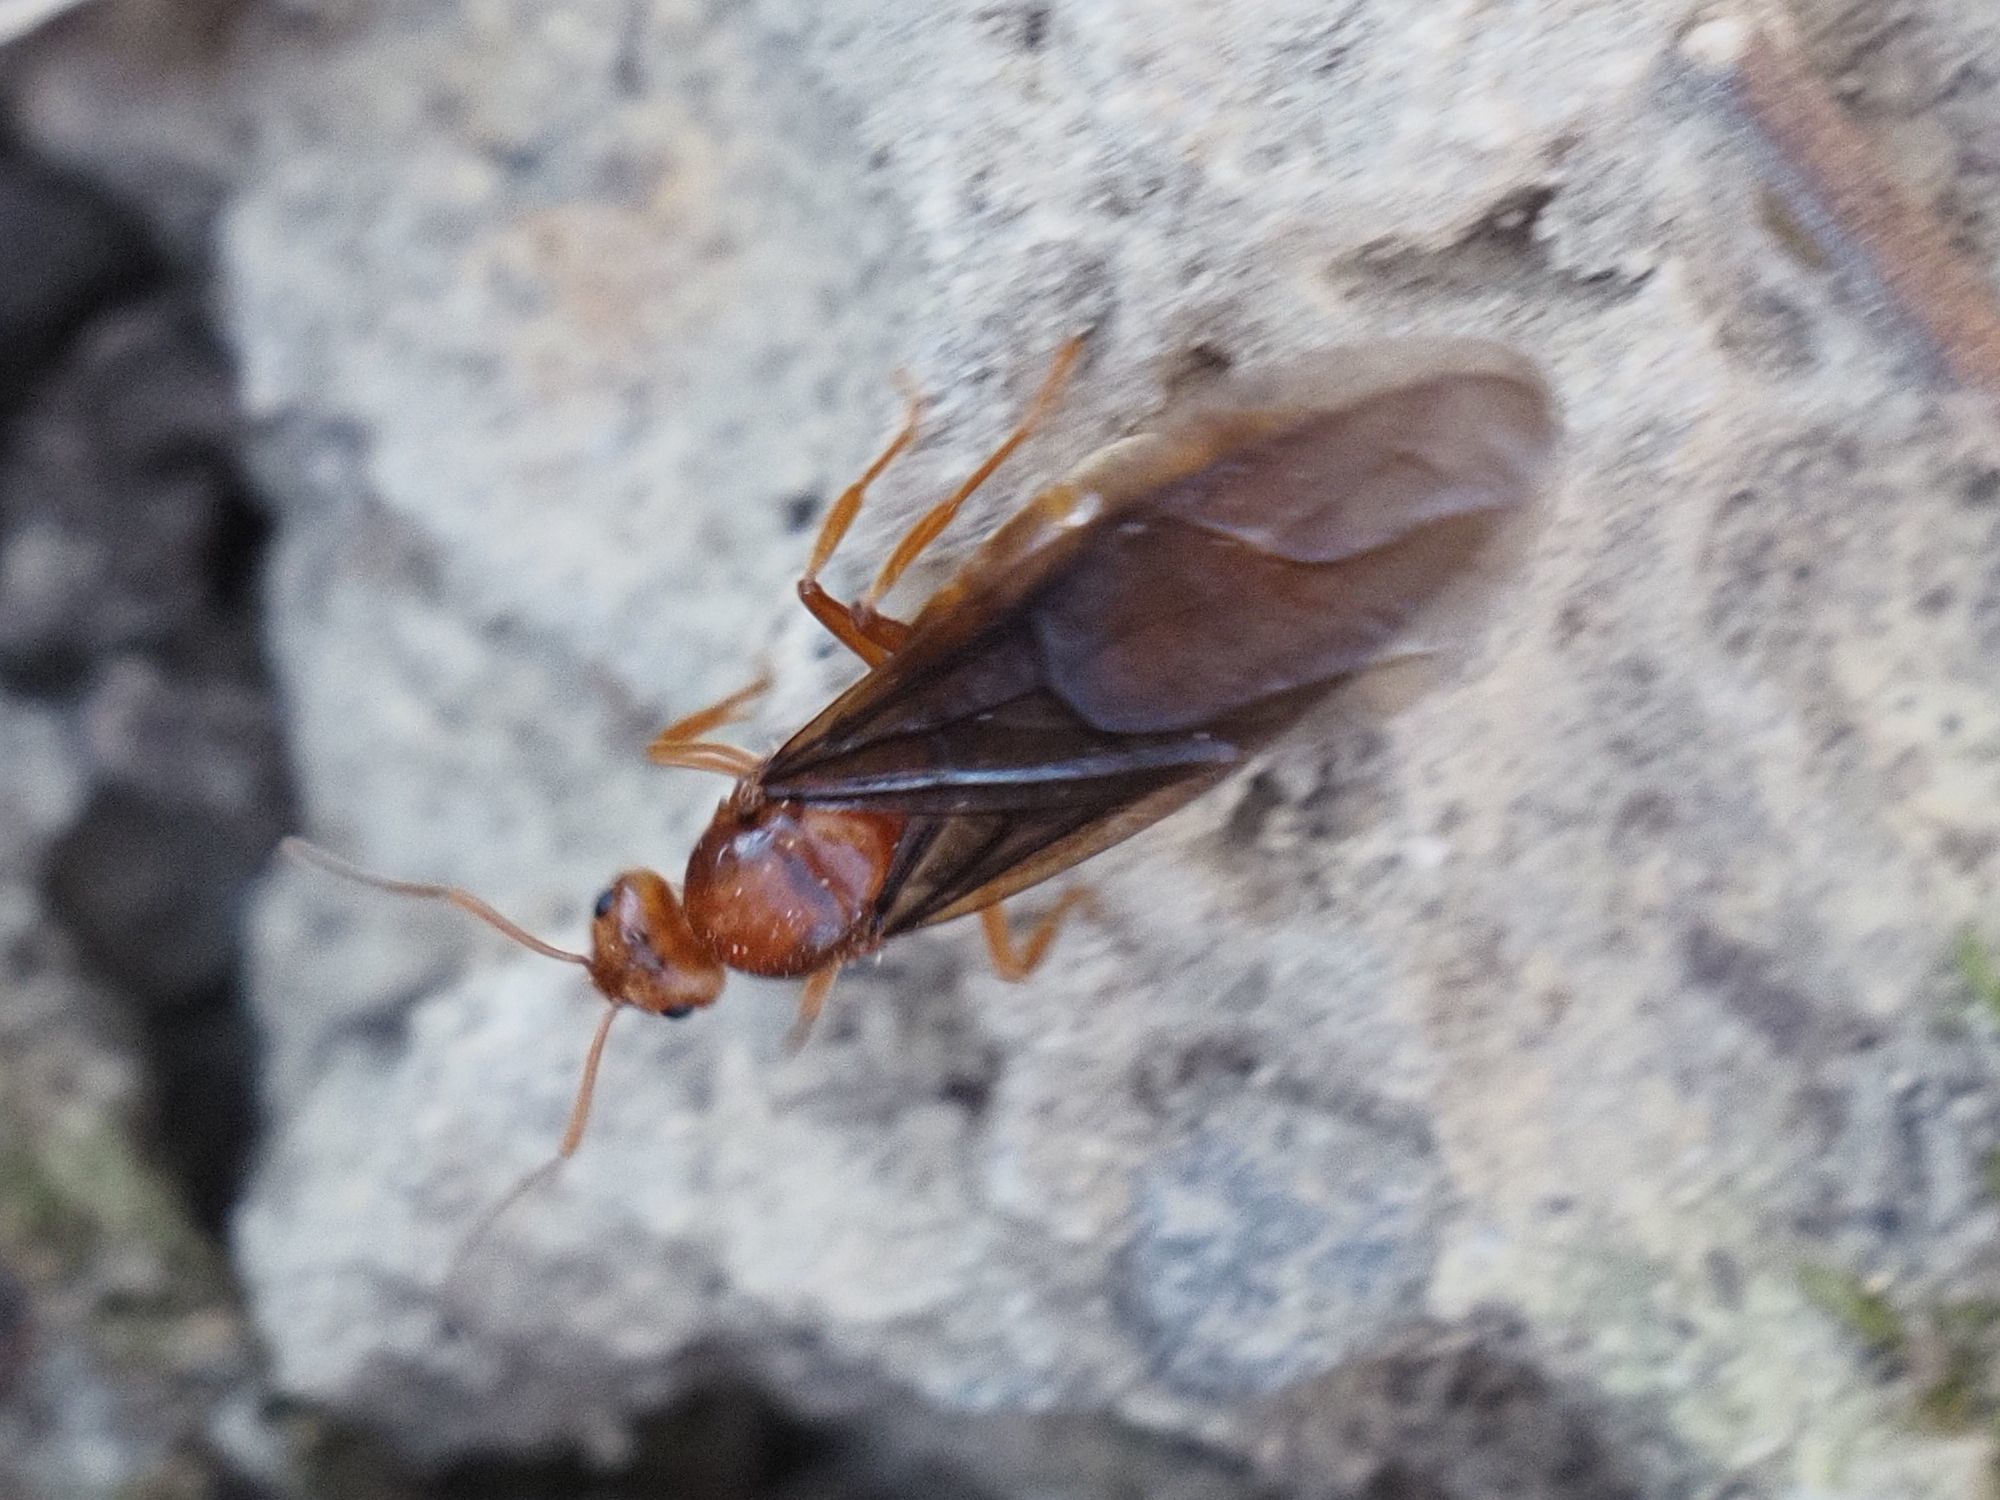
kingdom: Animalia
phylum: Arthropoda
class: Insecta
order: Hymenoptera
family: Formicidae
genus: Prenolepis
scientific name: Prenolepis nitens
